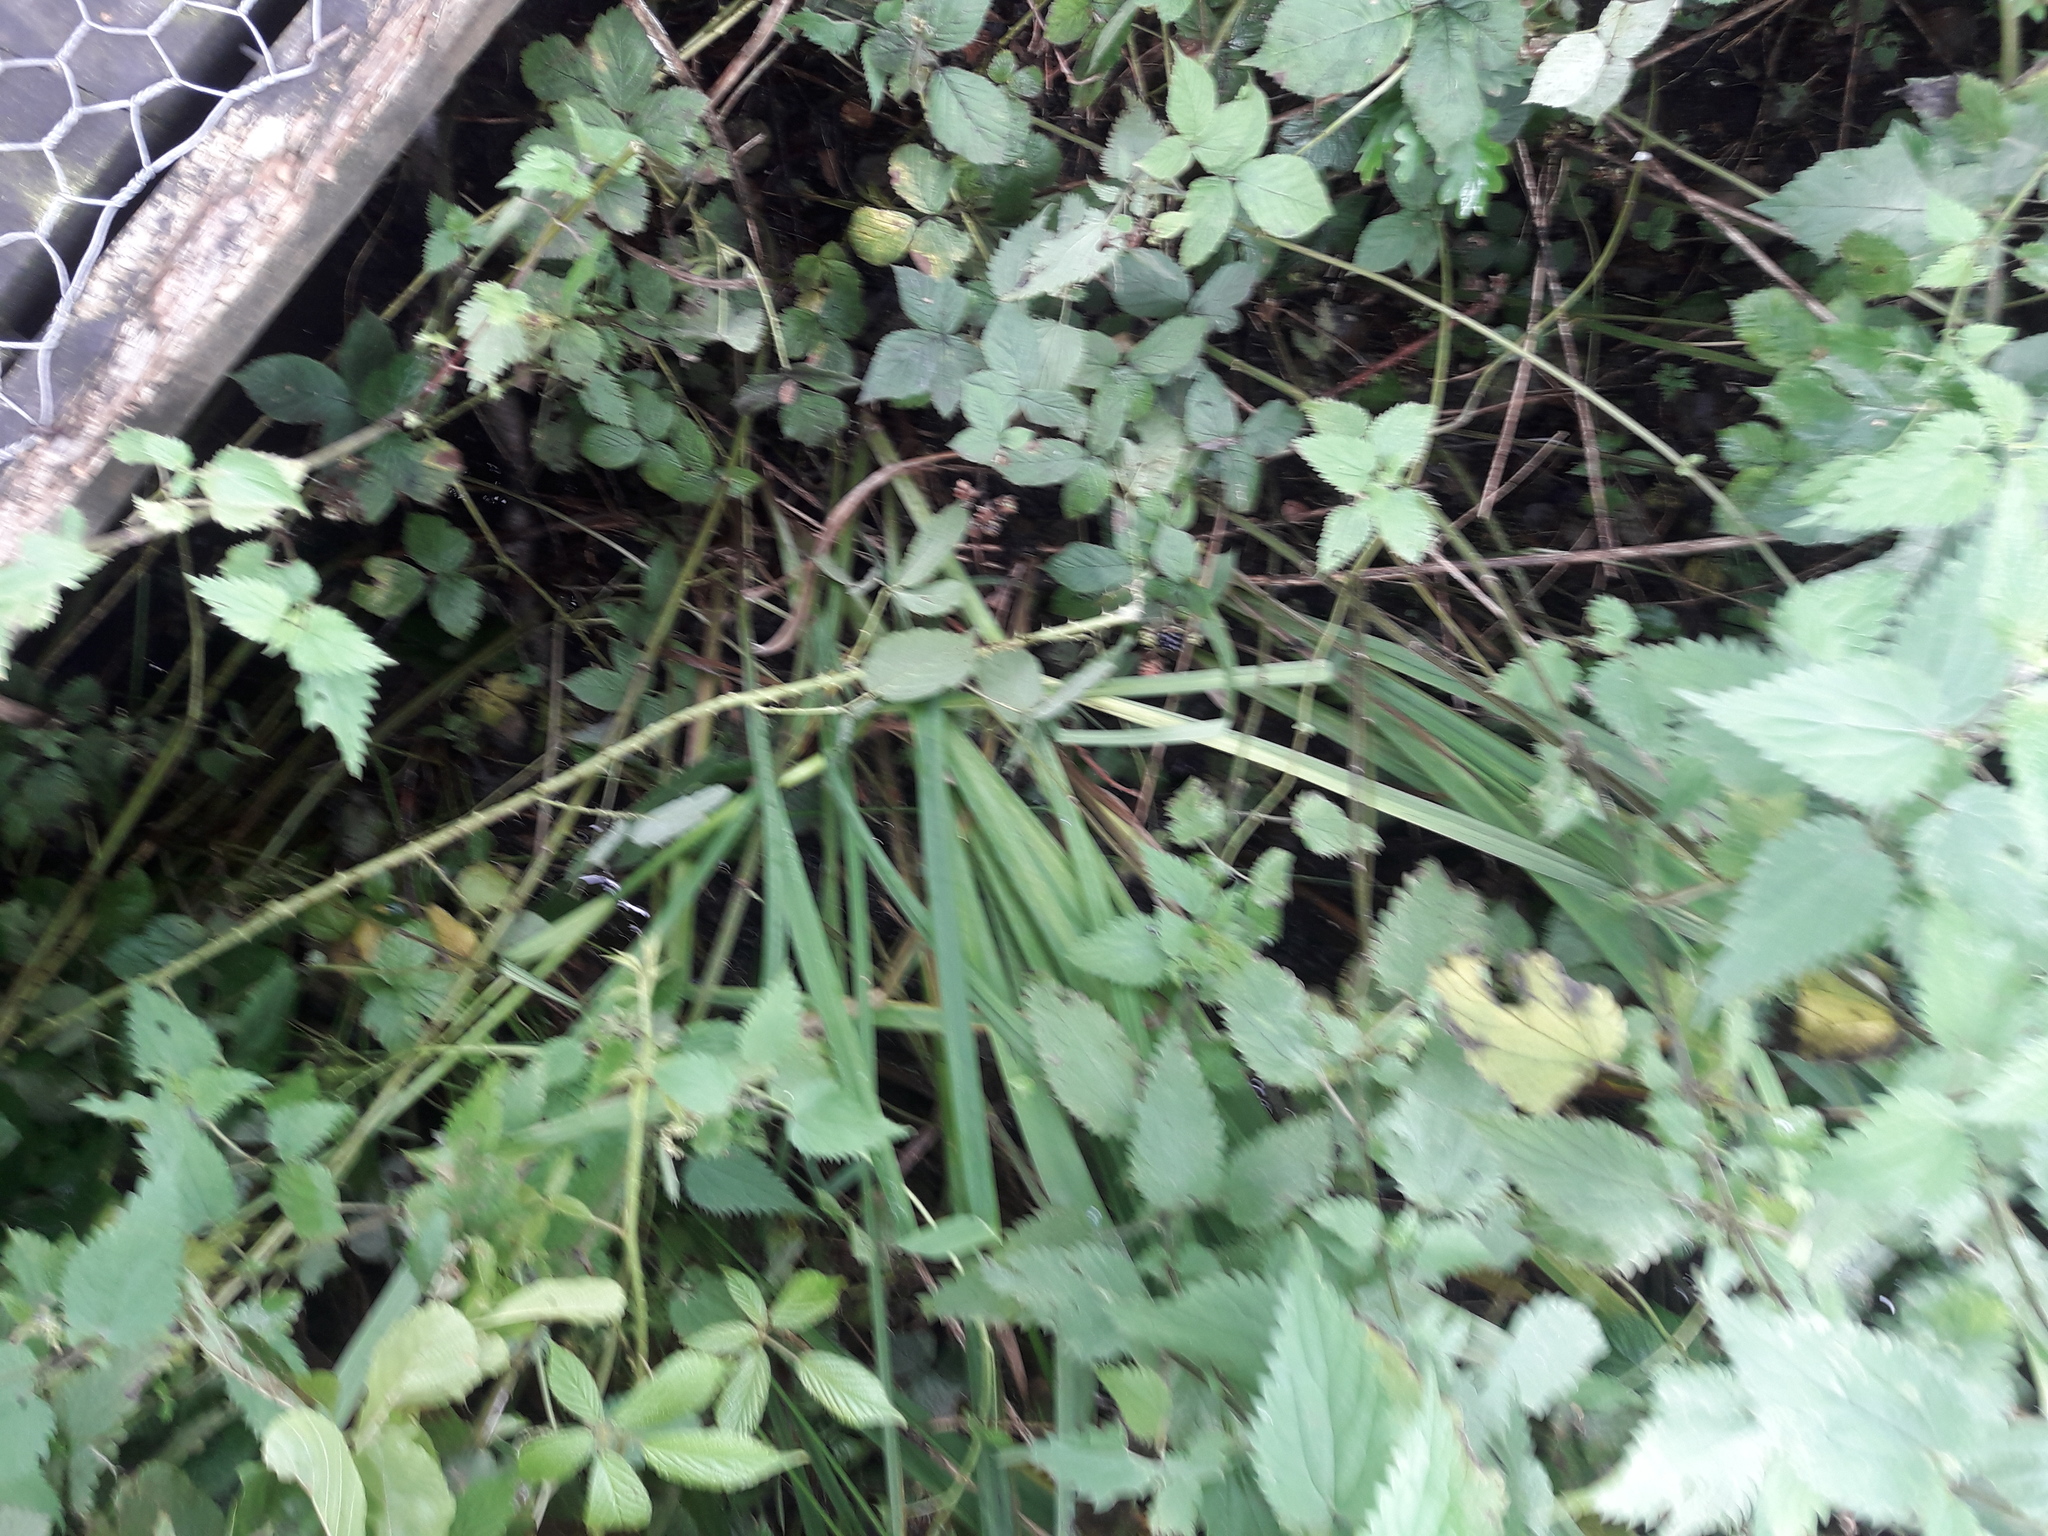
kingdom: Plantae
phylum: Tracheophyta
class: Magnoliopsida
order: Rosales
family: Urticaceae
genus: Urtica
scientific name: Urtica dioica
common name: Common nettle
